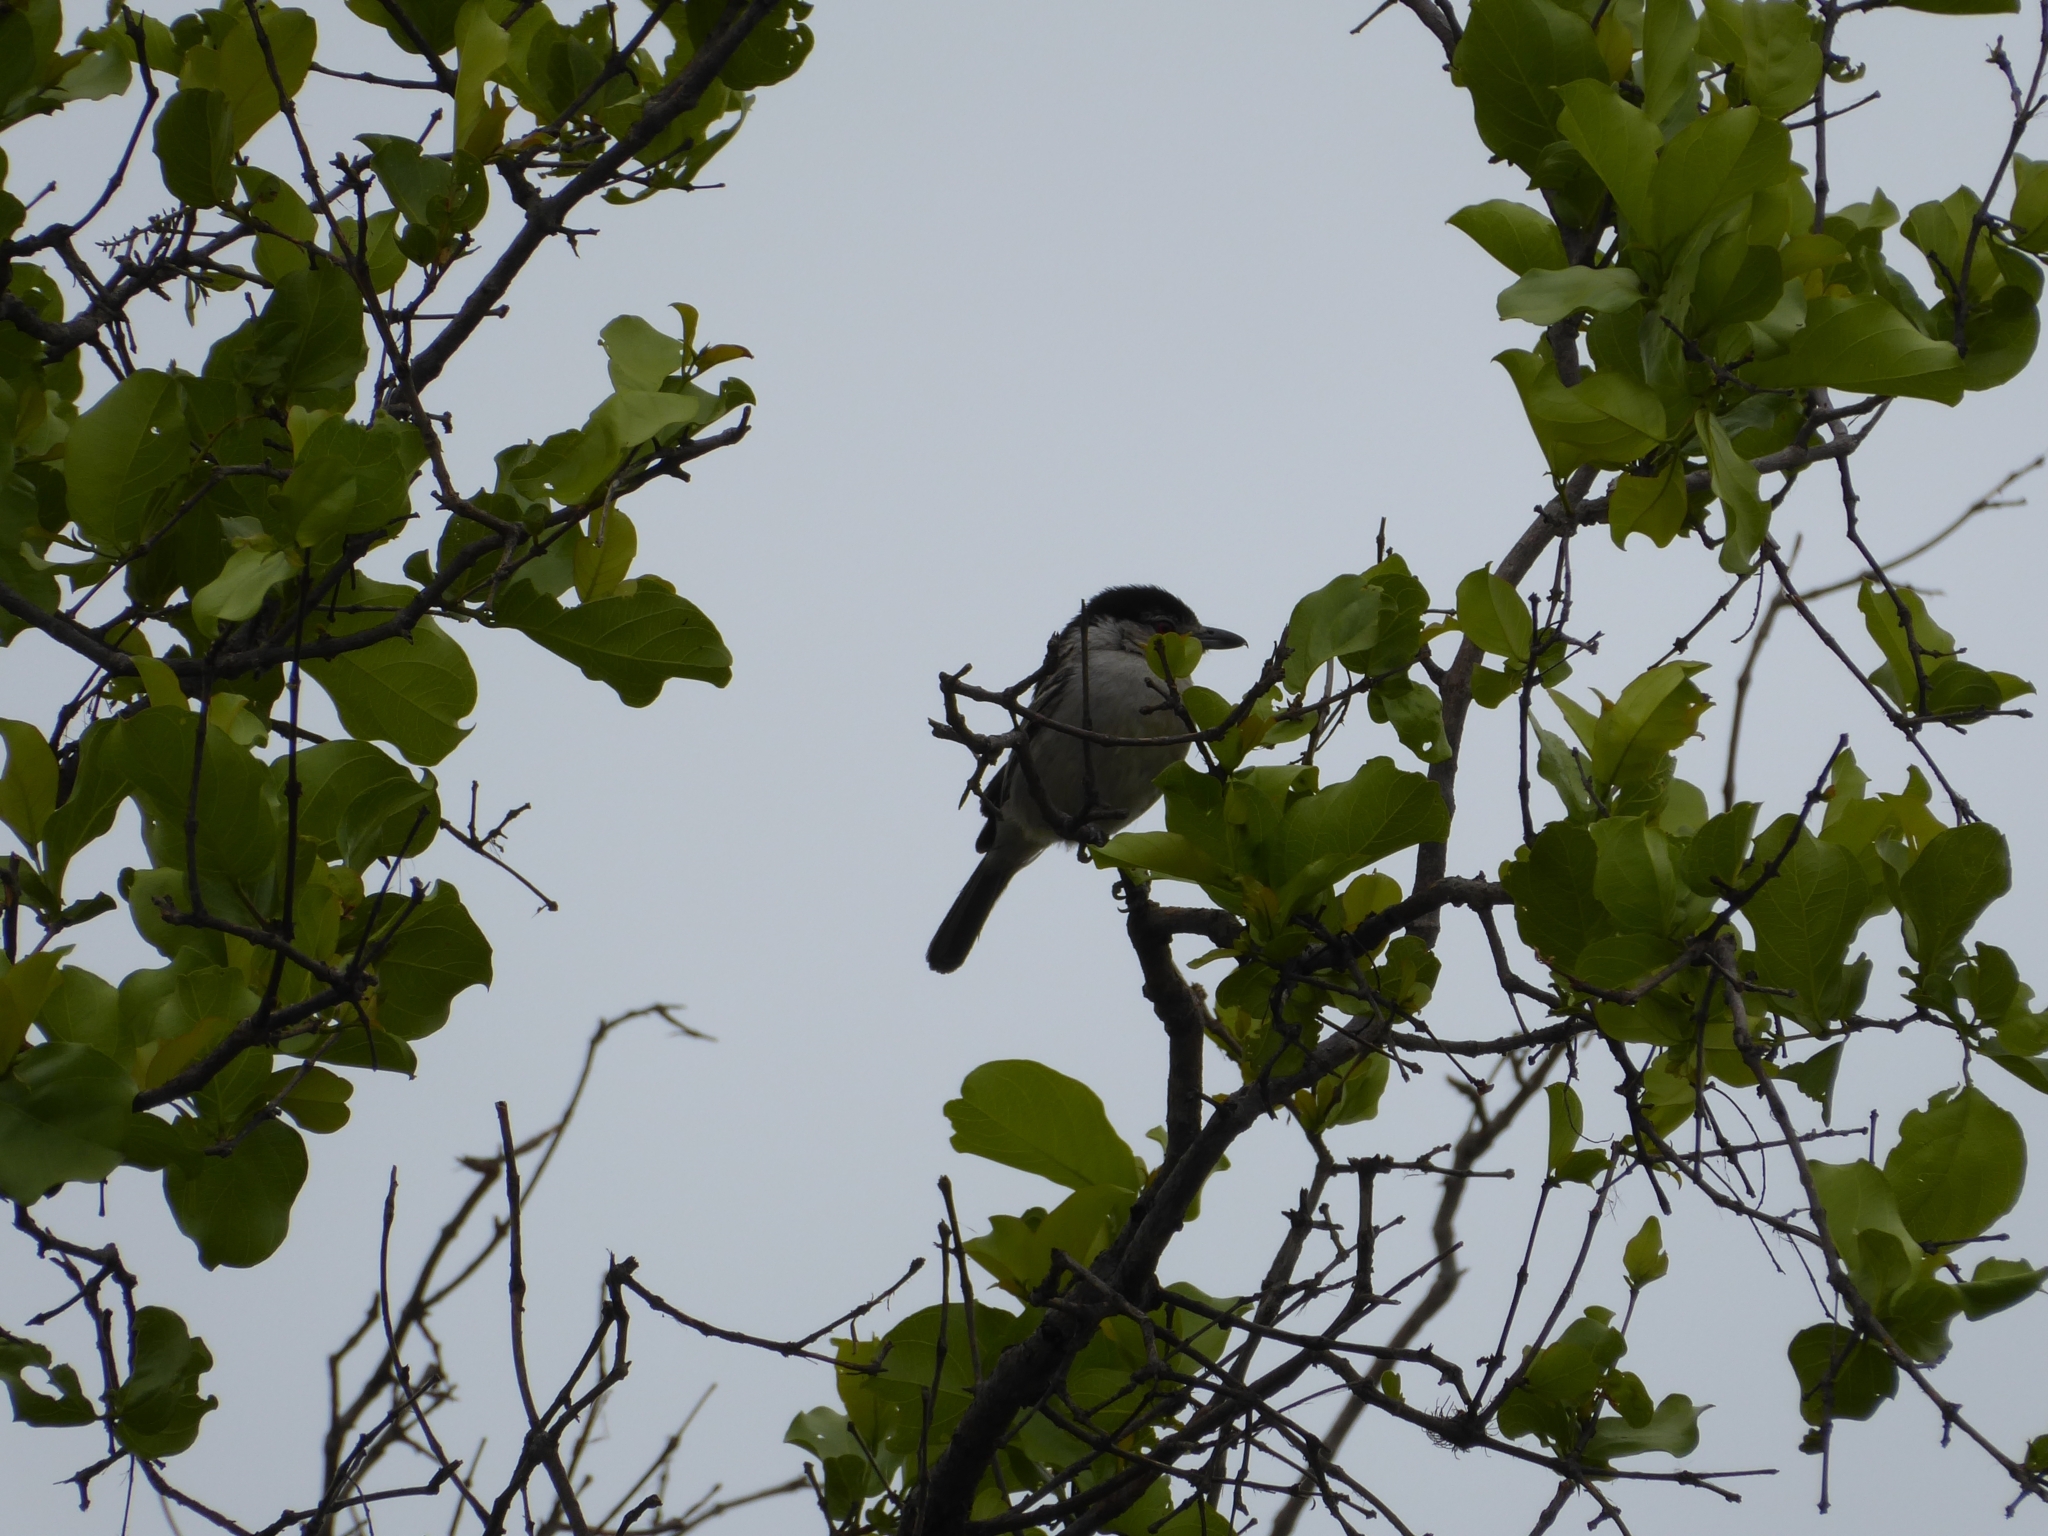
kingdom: Animalia
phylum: Chordata
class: Aves
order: Passeriformes
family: Malaconotidae
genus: Dryoscopus
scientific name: Dryoscopus cubla
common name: Black-backed puffback
